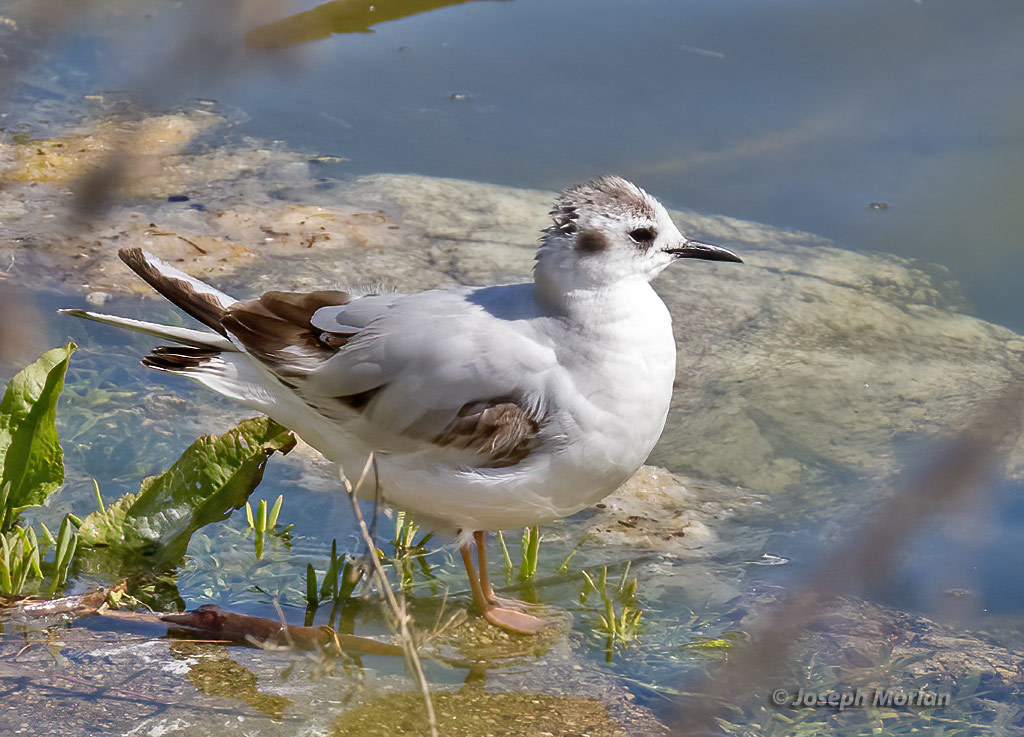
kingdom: Animalia
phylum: Chordata
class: Aves
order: Charadriiformes
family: Laridae
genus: Hydrocoloeus
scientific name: Hydrocoloeus minutus
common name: Little gull
